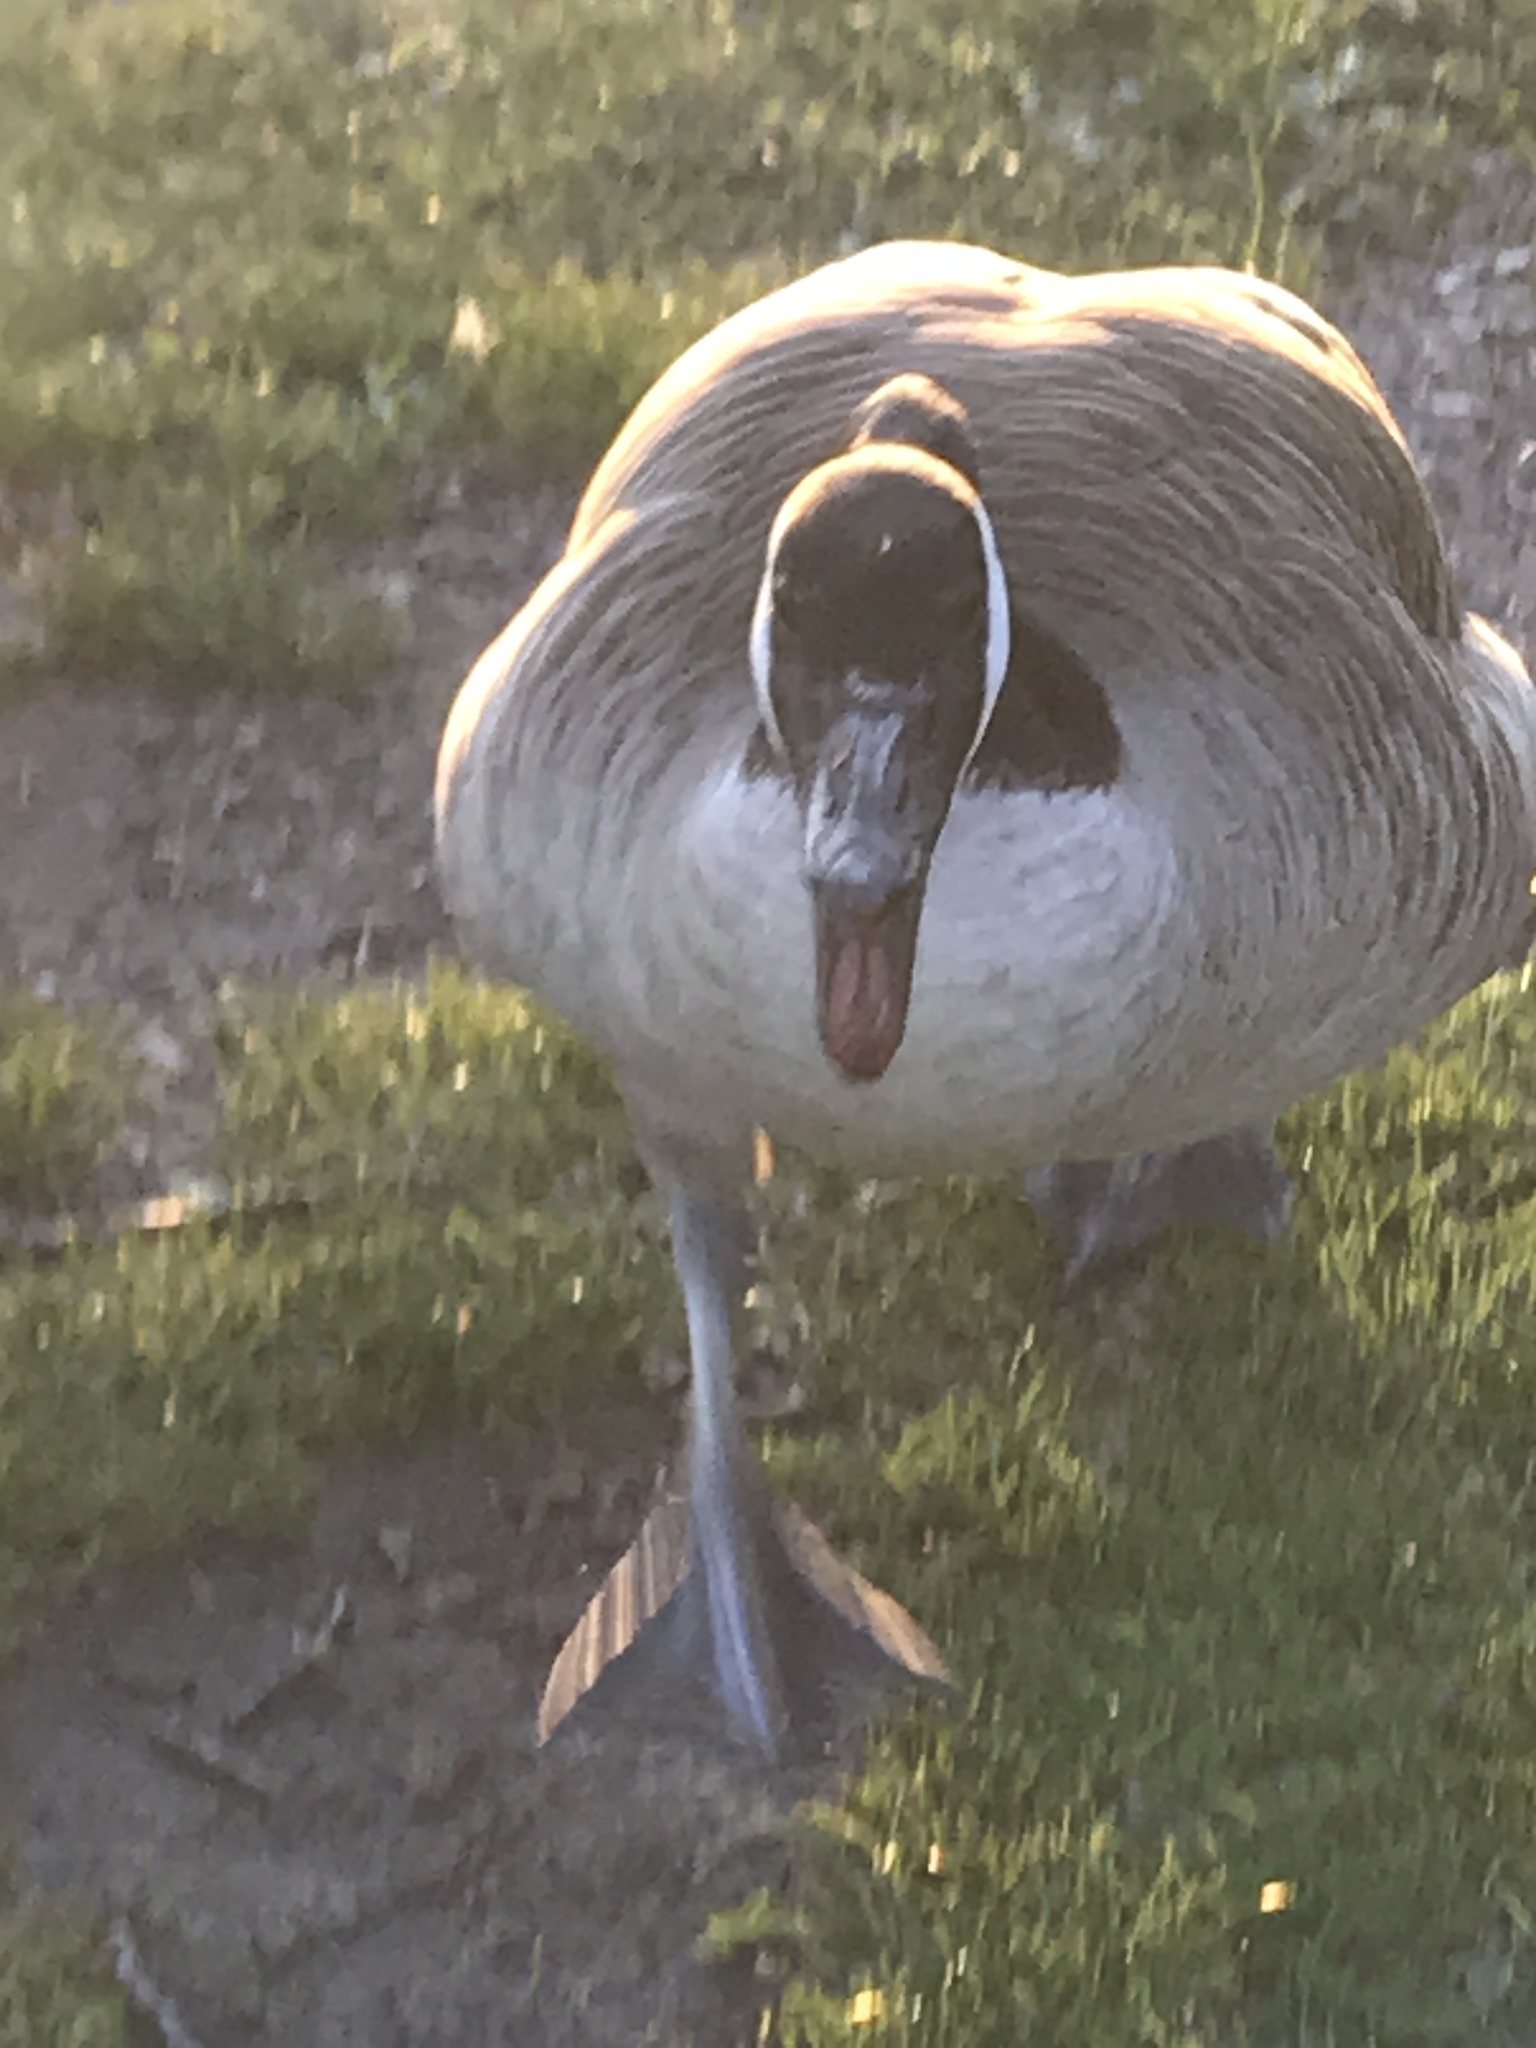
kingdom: Animalia
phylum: Chordata
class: Aves
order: Anseriformes
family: Anatidae
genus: Branta
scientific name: Branta canadensis
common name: Canada goose
